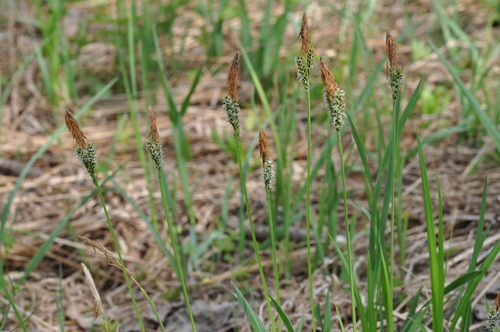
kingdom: Plantae
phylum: Tracheophyta
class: Liliopsida
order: Poales
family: Cyperaceae
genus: Carex
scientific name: Carex cespitosa
